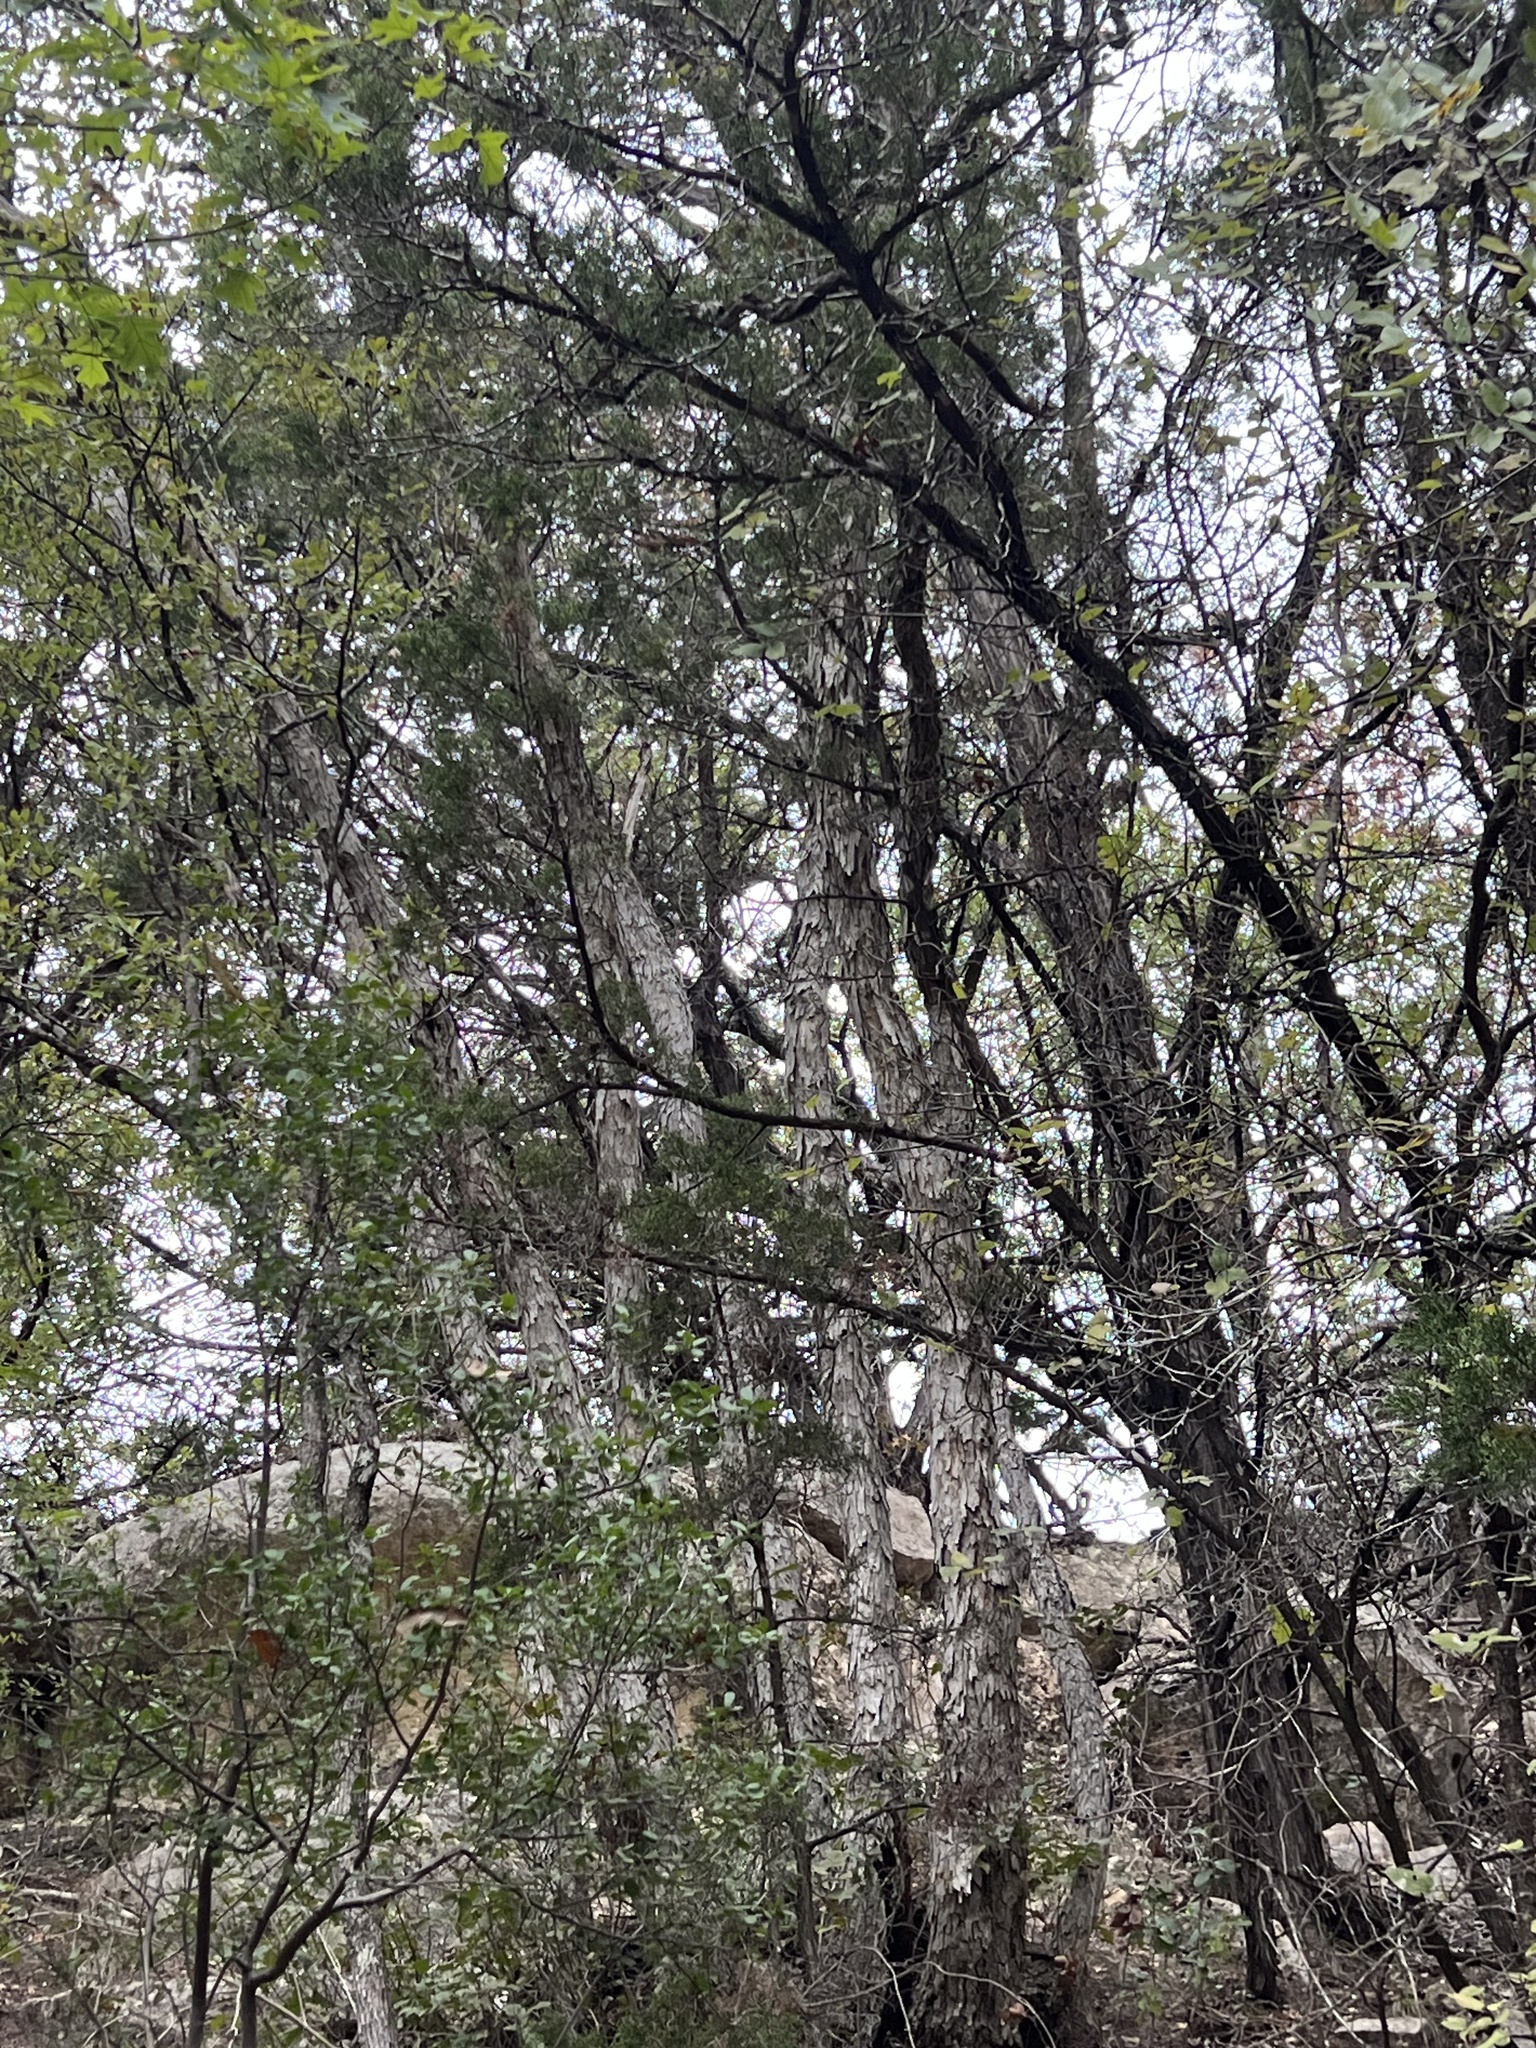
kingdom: Plantae
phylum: Tracheophyta
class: Magnoliopsida
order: Fagales
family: Fagaceae
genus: Quercus
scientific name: Quercus sinuata
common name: Durand oak
